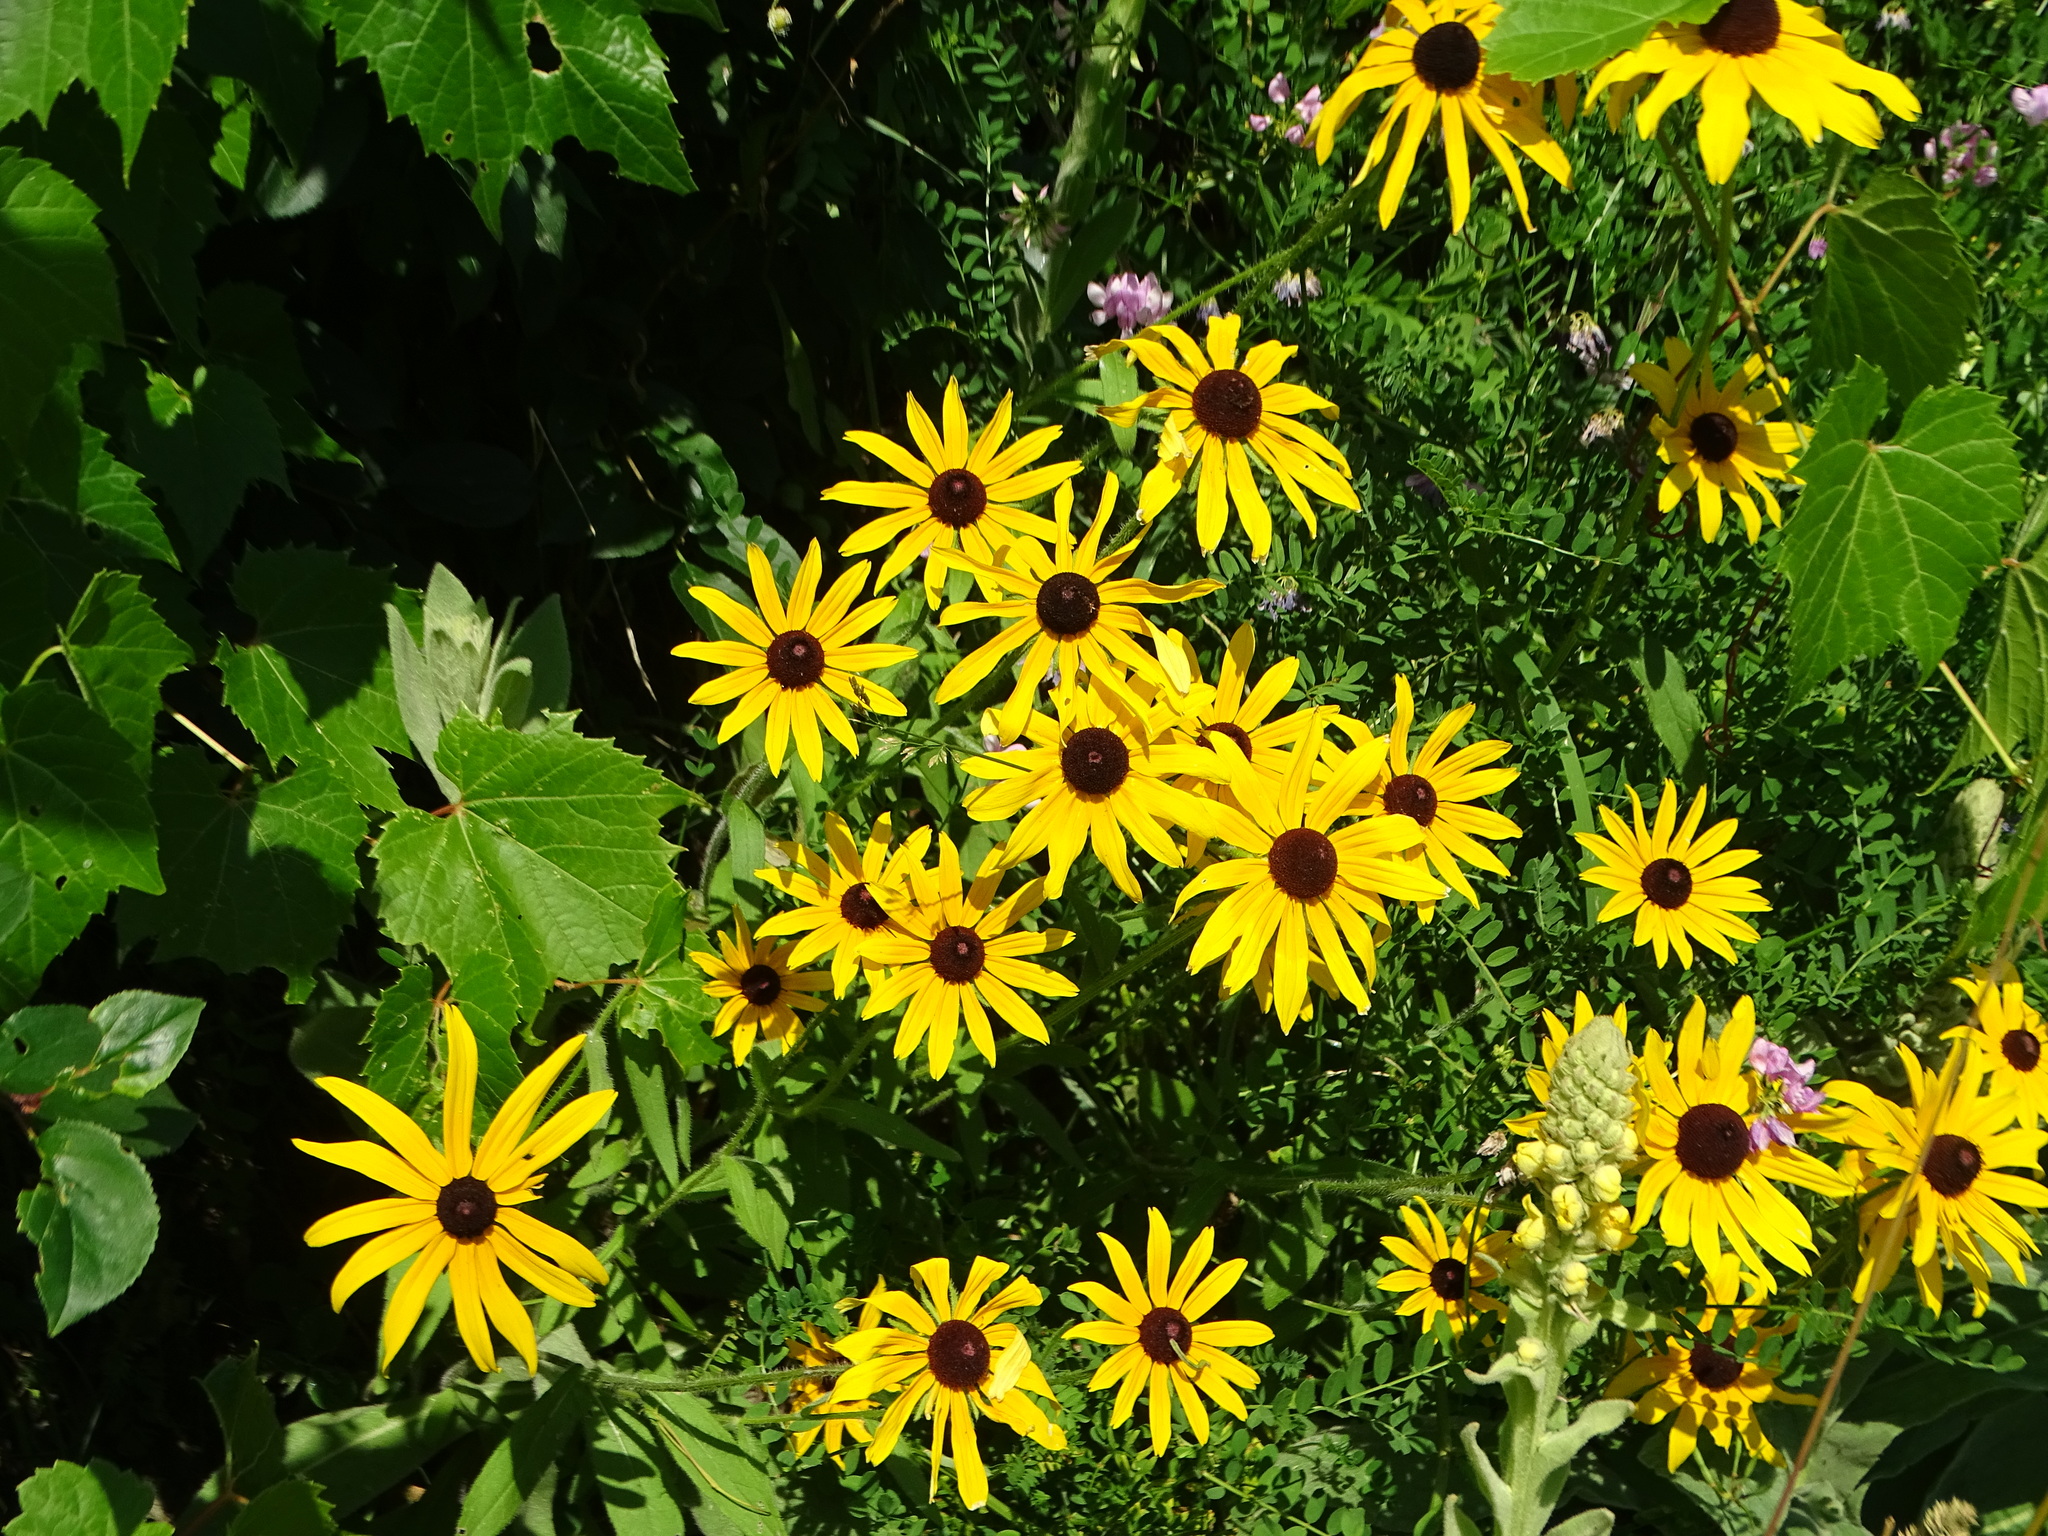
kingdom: Plantae
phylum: Tracheophyta
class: Magnoliopsida
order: Asterales
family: Asteraceae
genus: Rudbeckia
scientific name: Rudbeckia hirta
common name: Black-eyed-susan
